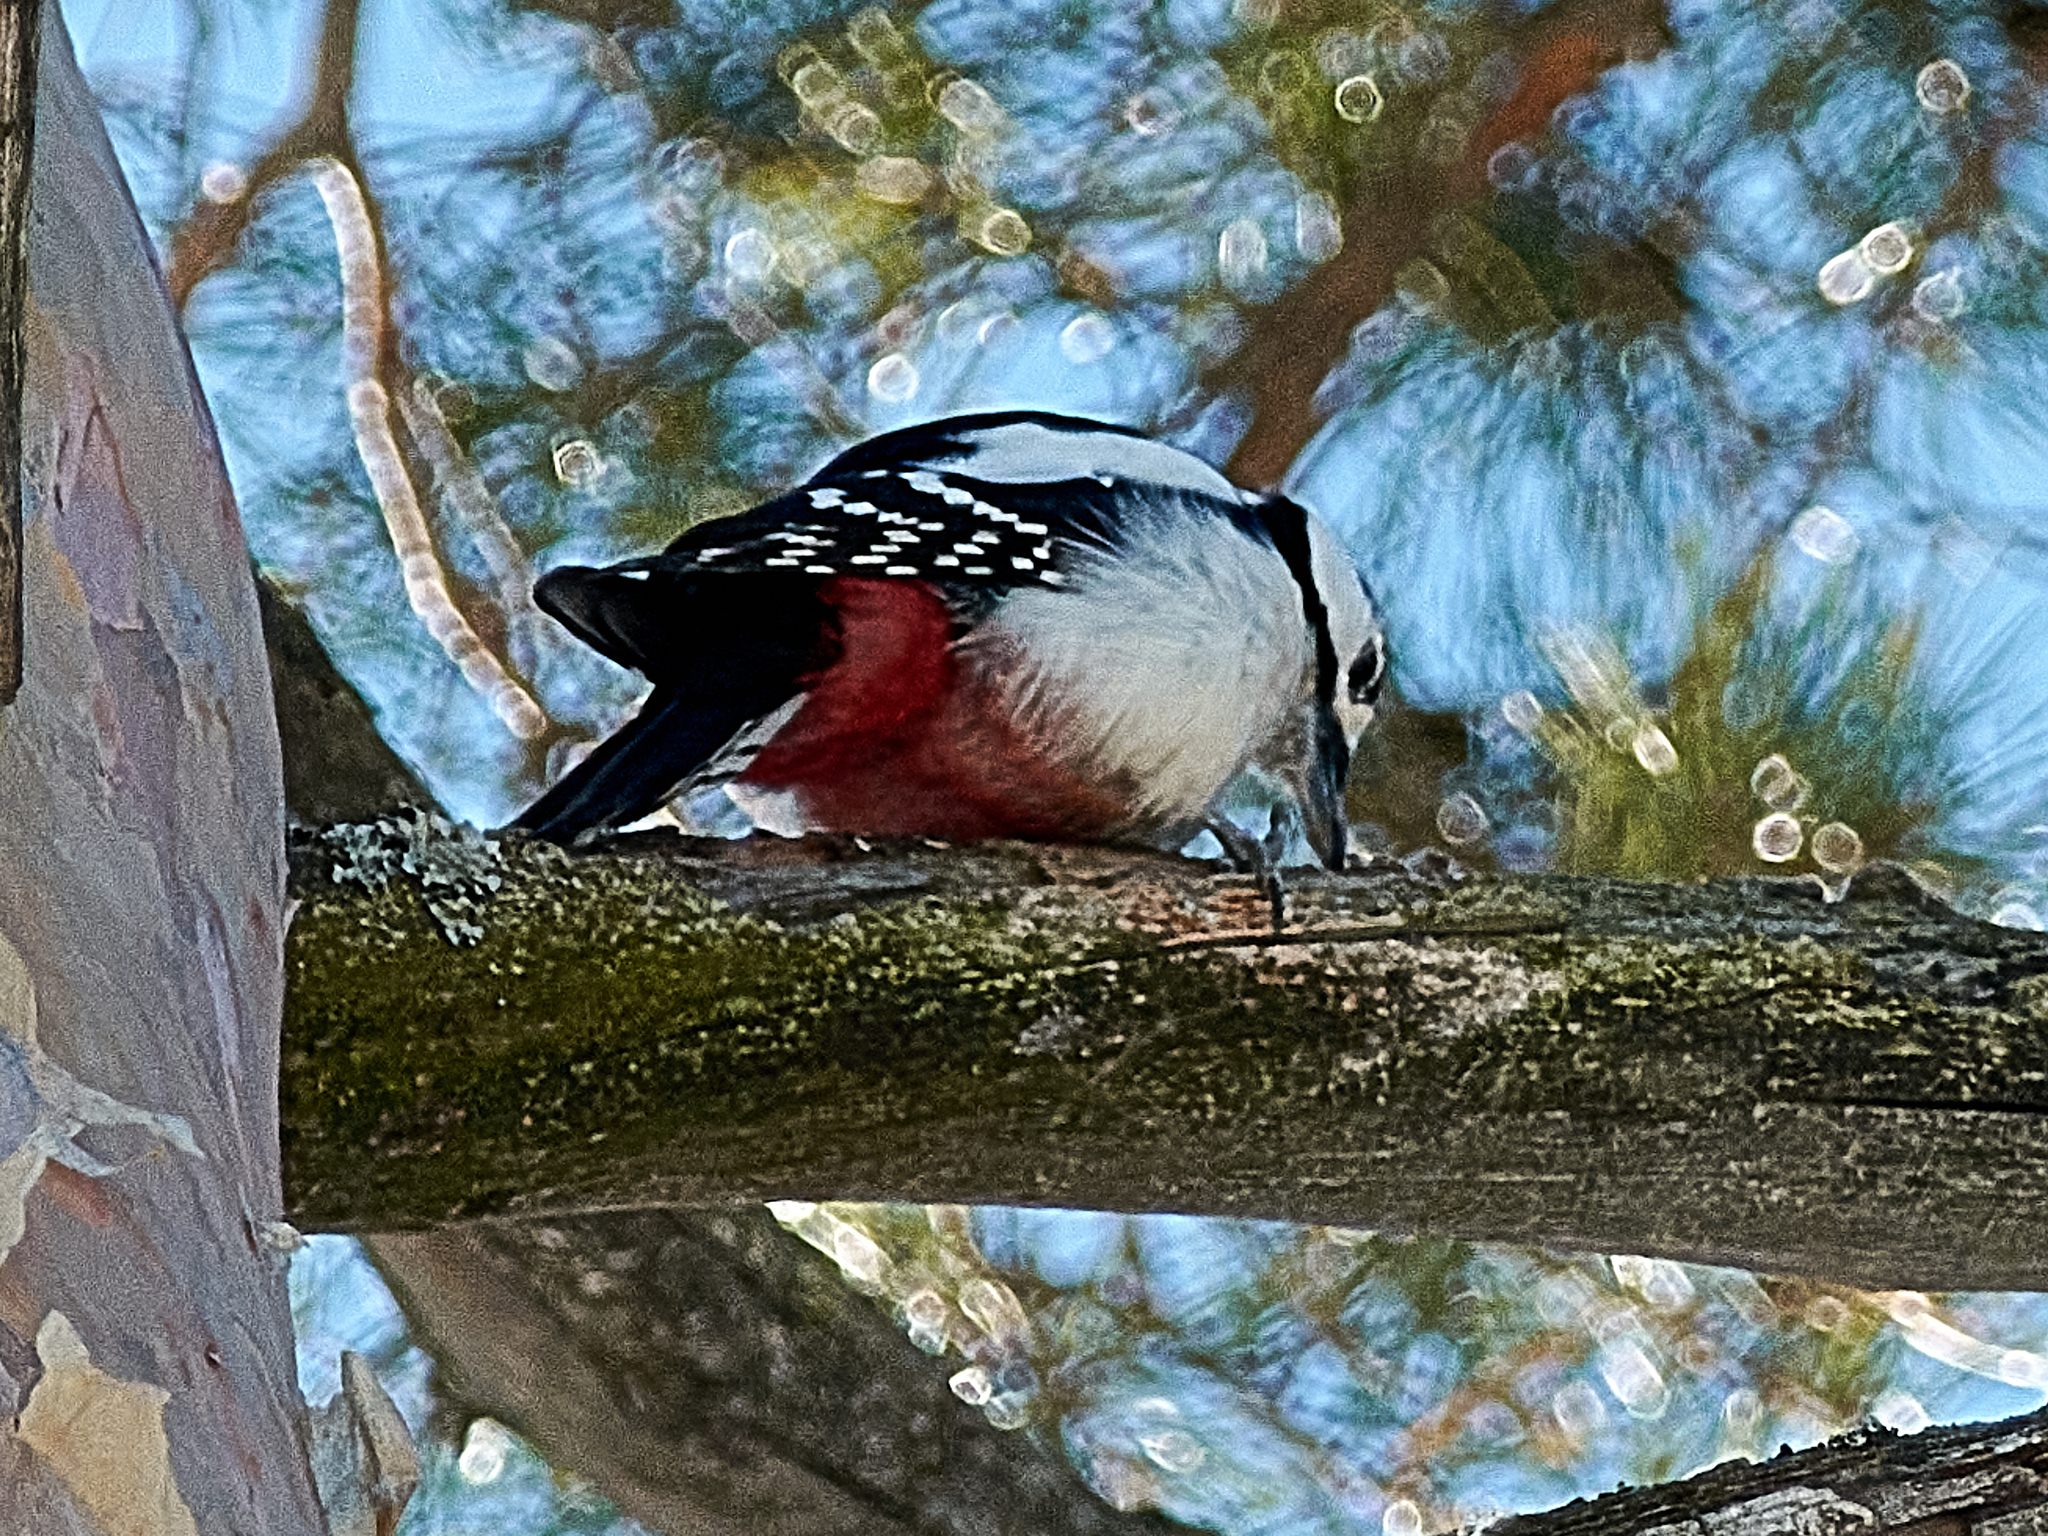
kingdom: Animalia
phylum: Chordata
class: Aves
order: Piciformes
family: Picidae
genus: Dendrocopos
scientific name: Dendrocopos major
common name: Great spotted woodpecker
